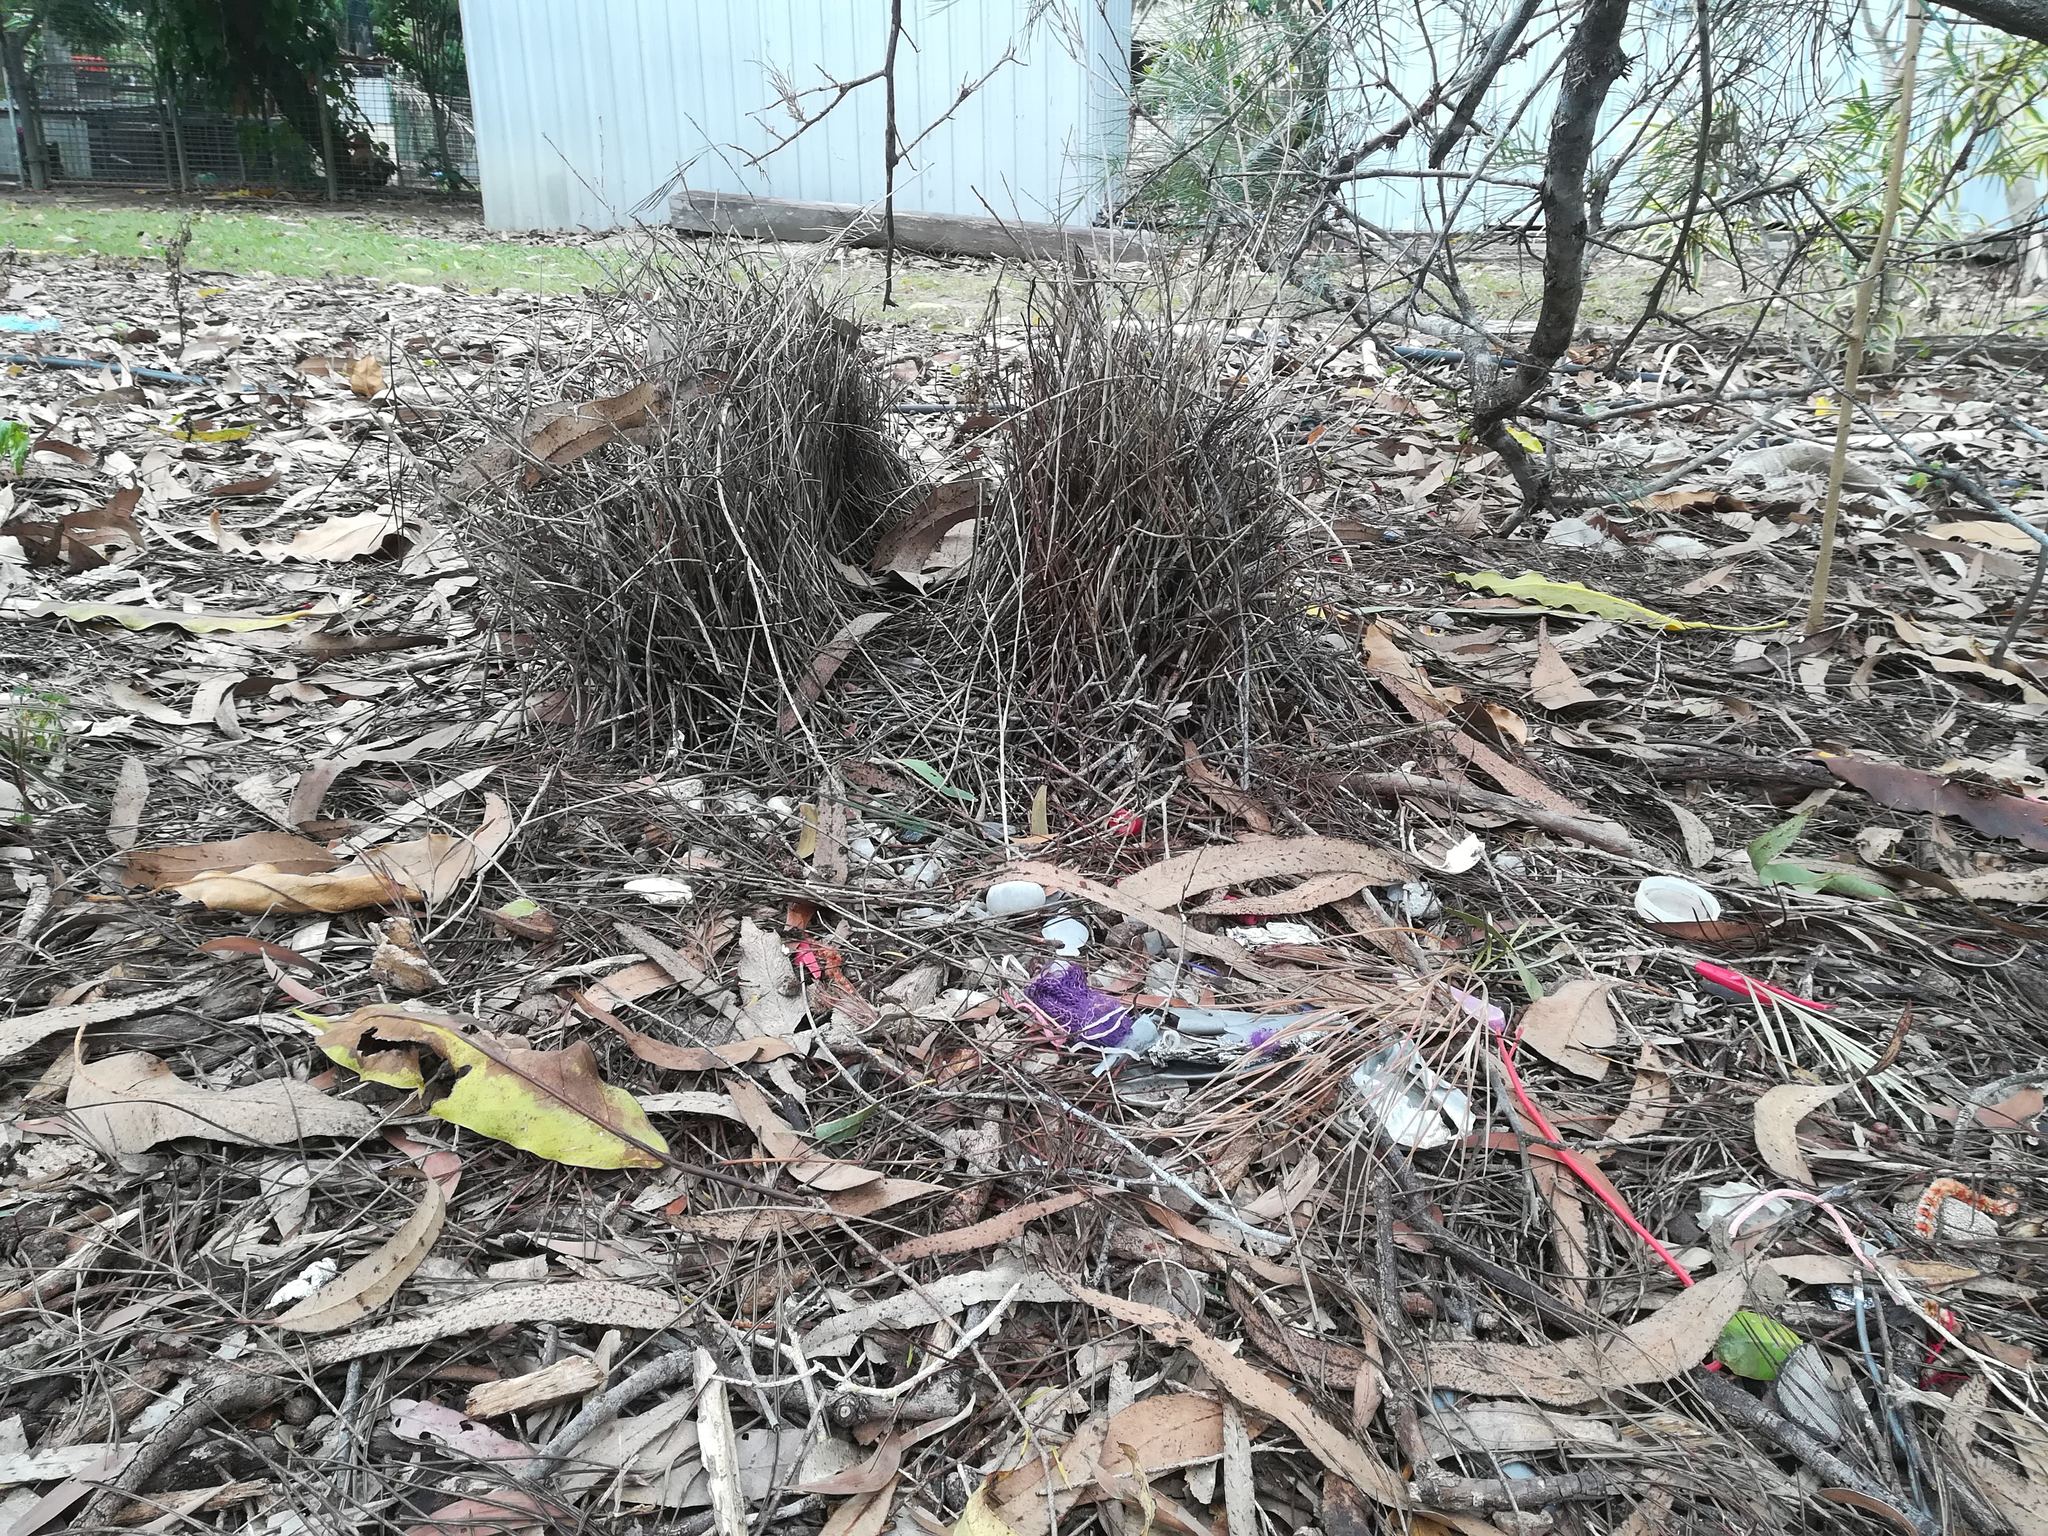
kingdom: Animalia
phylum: Chordata
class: Aves
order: Passeriformes
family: Ptilonorhynchidae
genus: Chlamydera
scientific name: Chlamydera nuchalis
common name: Great bowerbird
